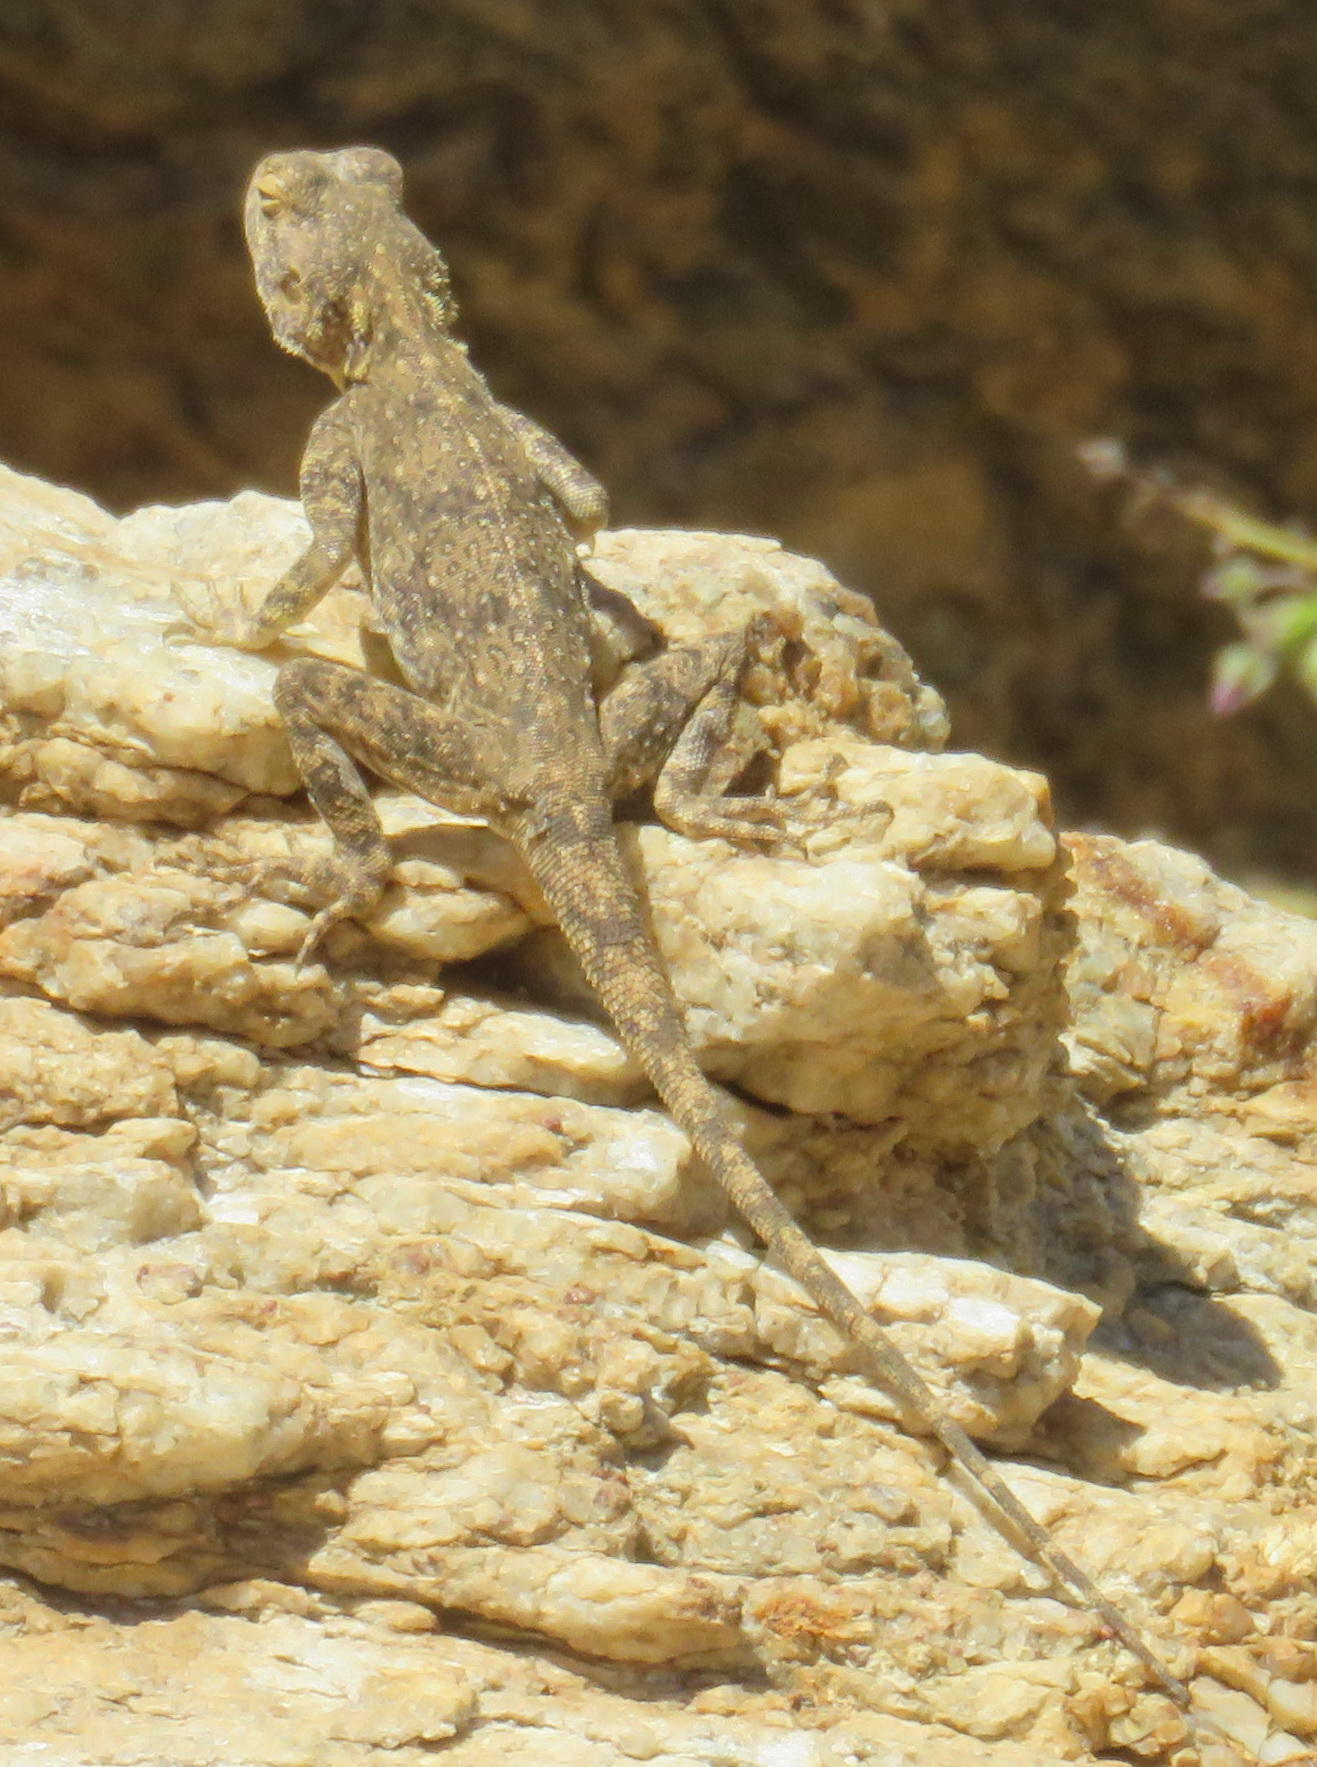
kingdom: Animalia
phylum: Chordata
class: Squamata
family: Agamidae
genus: Agama
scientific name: Agama atra
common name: Southern african rock agama
